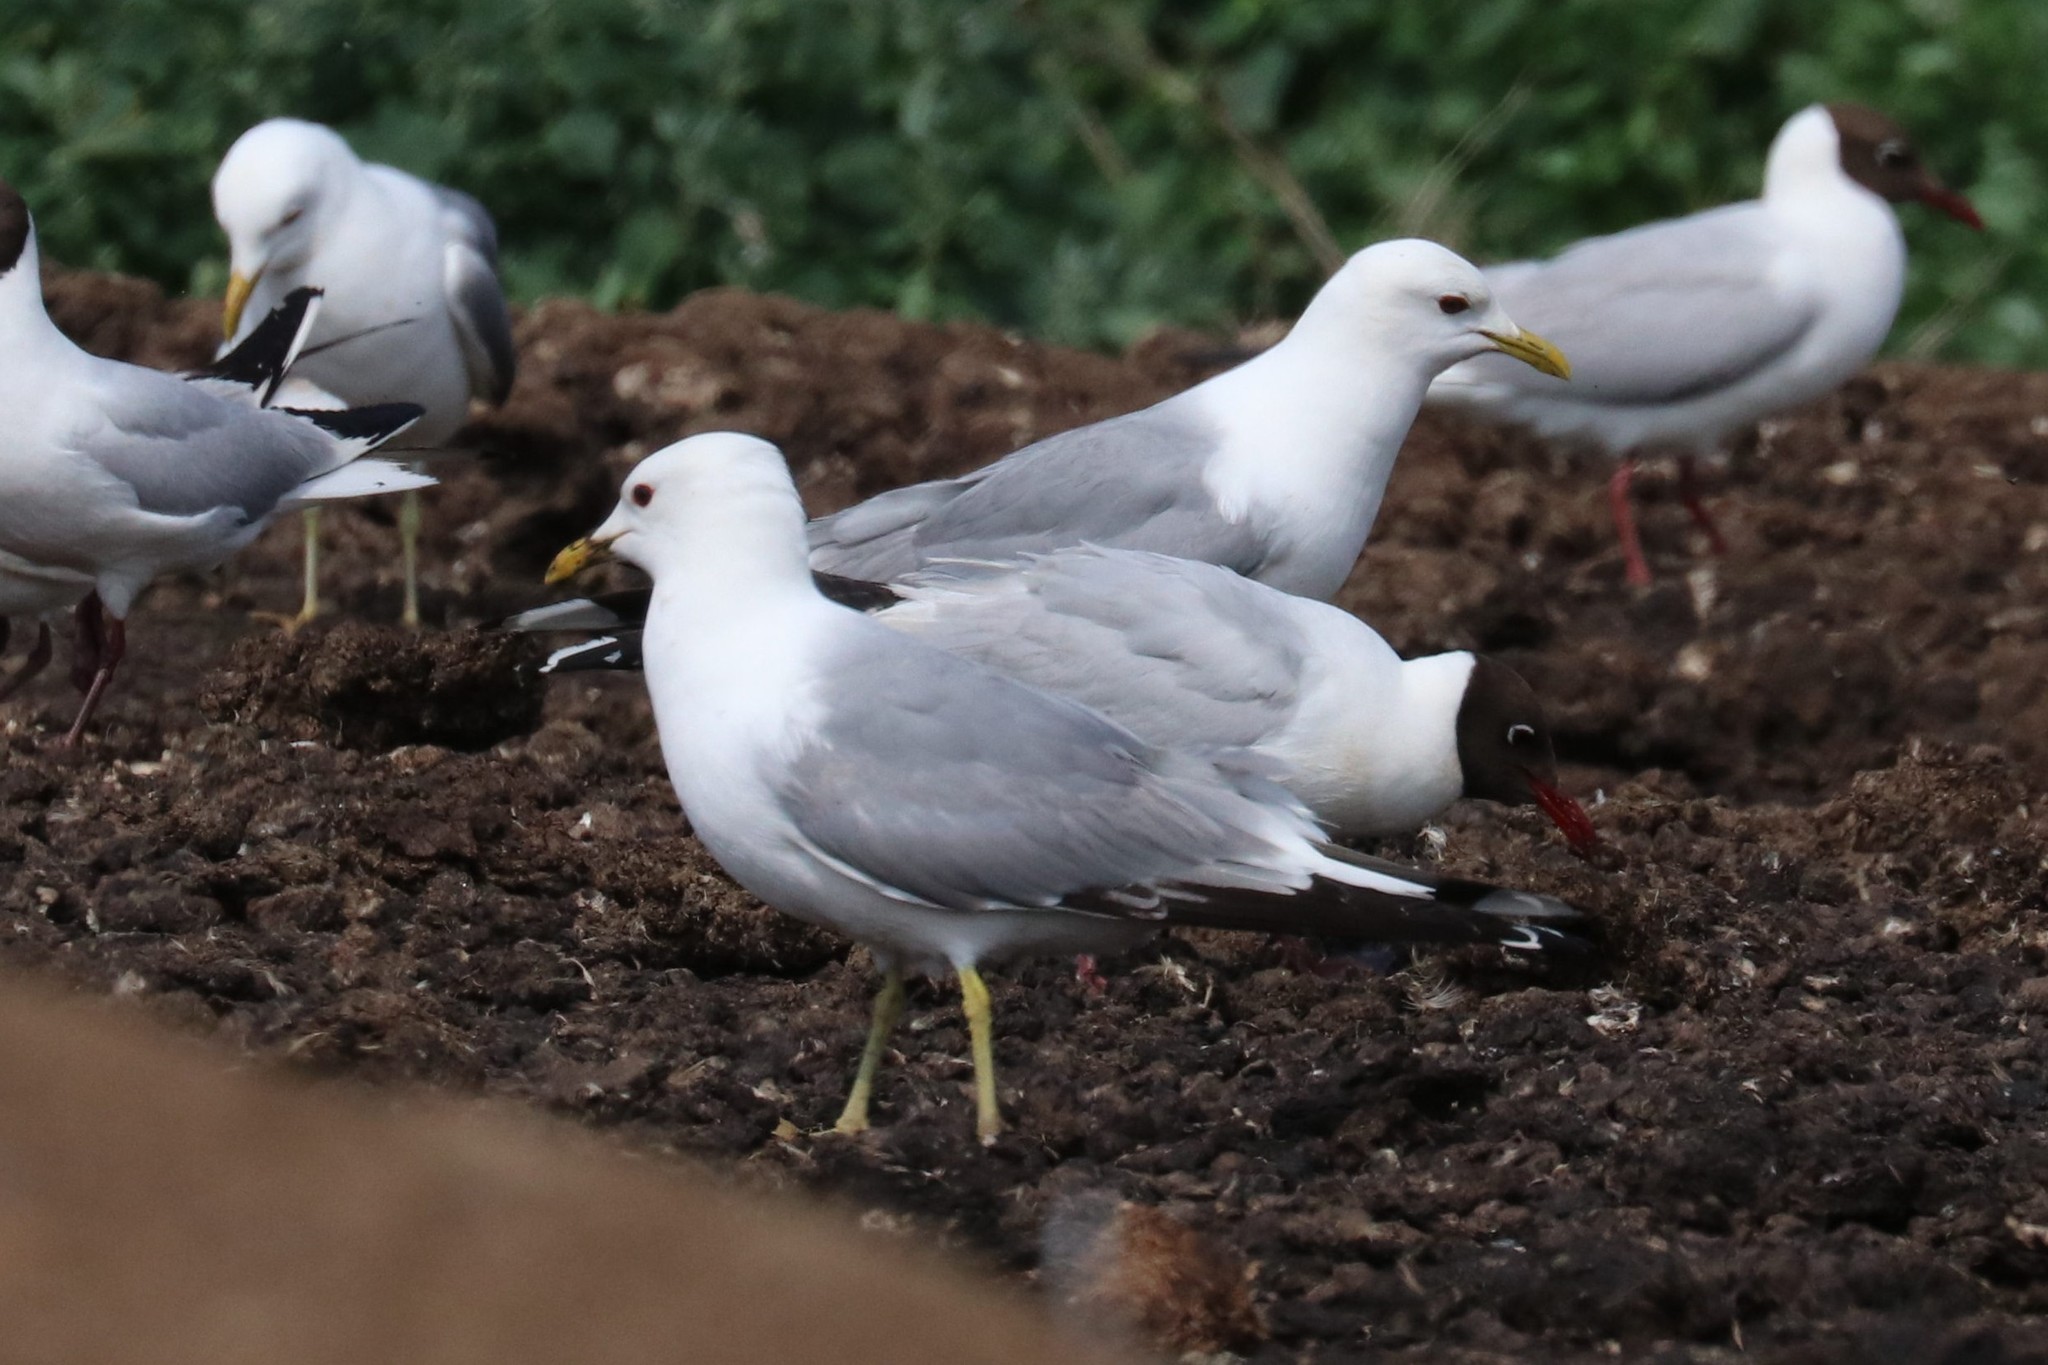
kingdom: Animalia
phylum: Chordata
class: Aves
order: Charadriiformes
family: Laridae
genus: Larus
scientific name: Larus canus
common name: Mew gull
